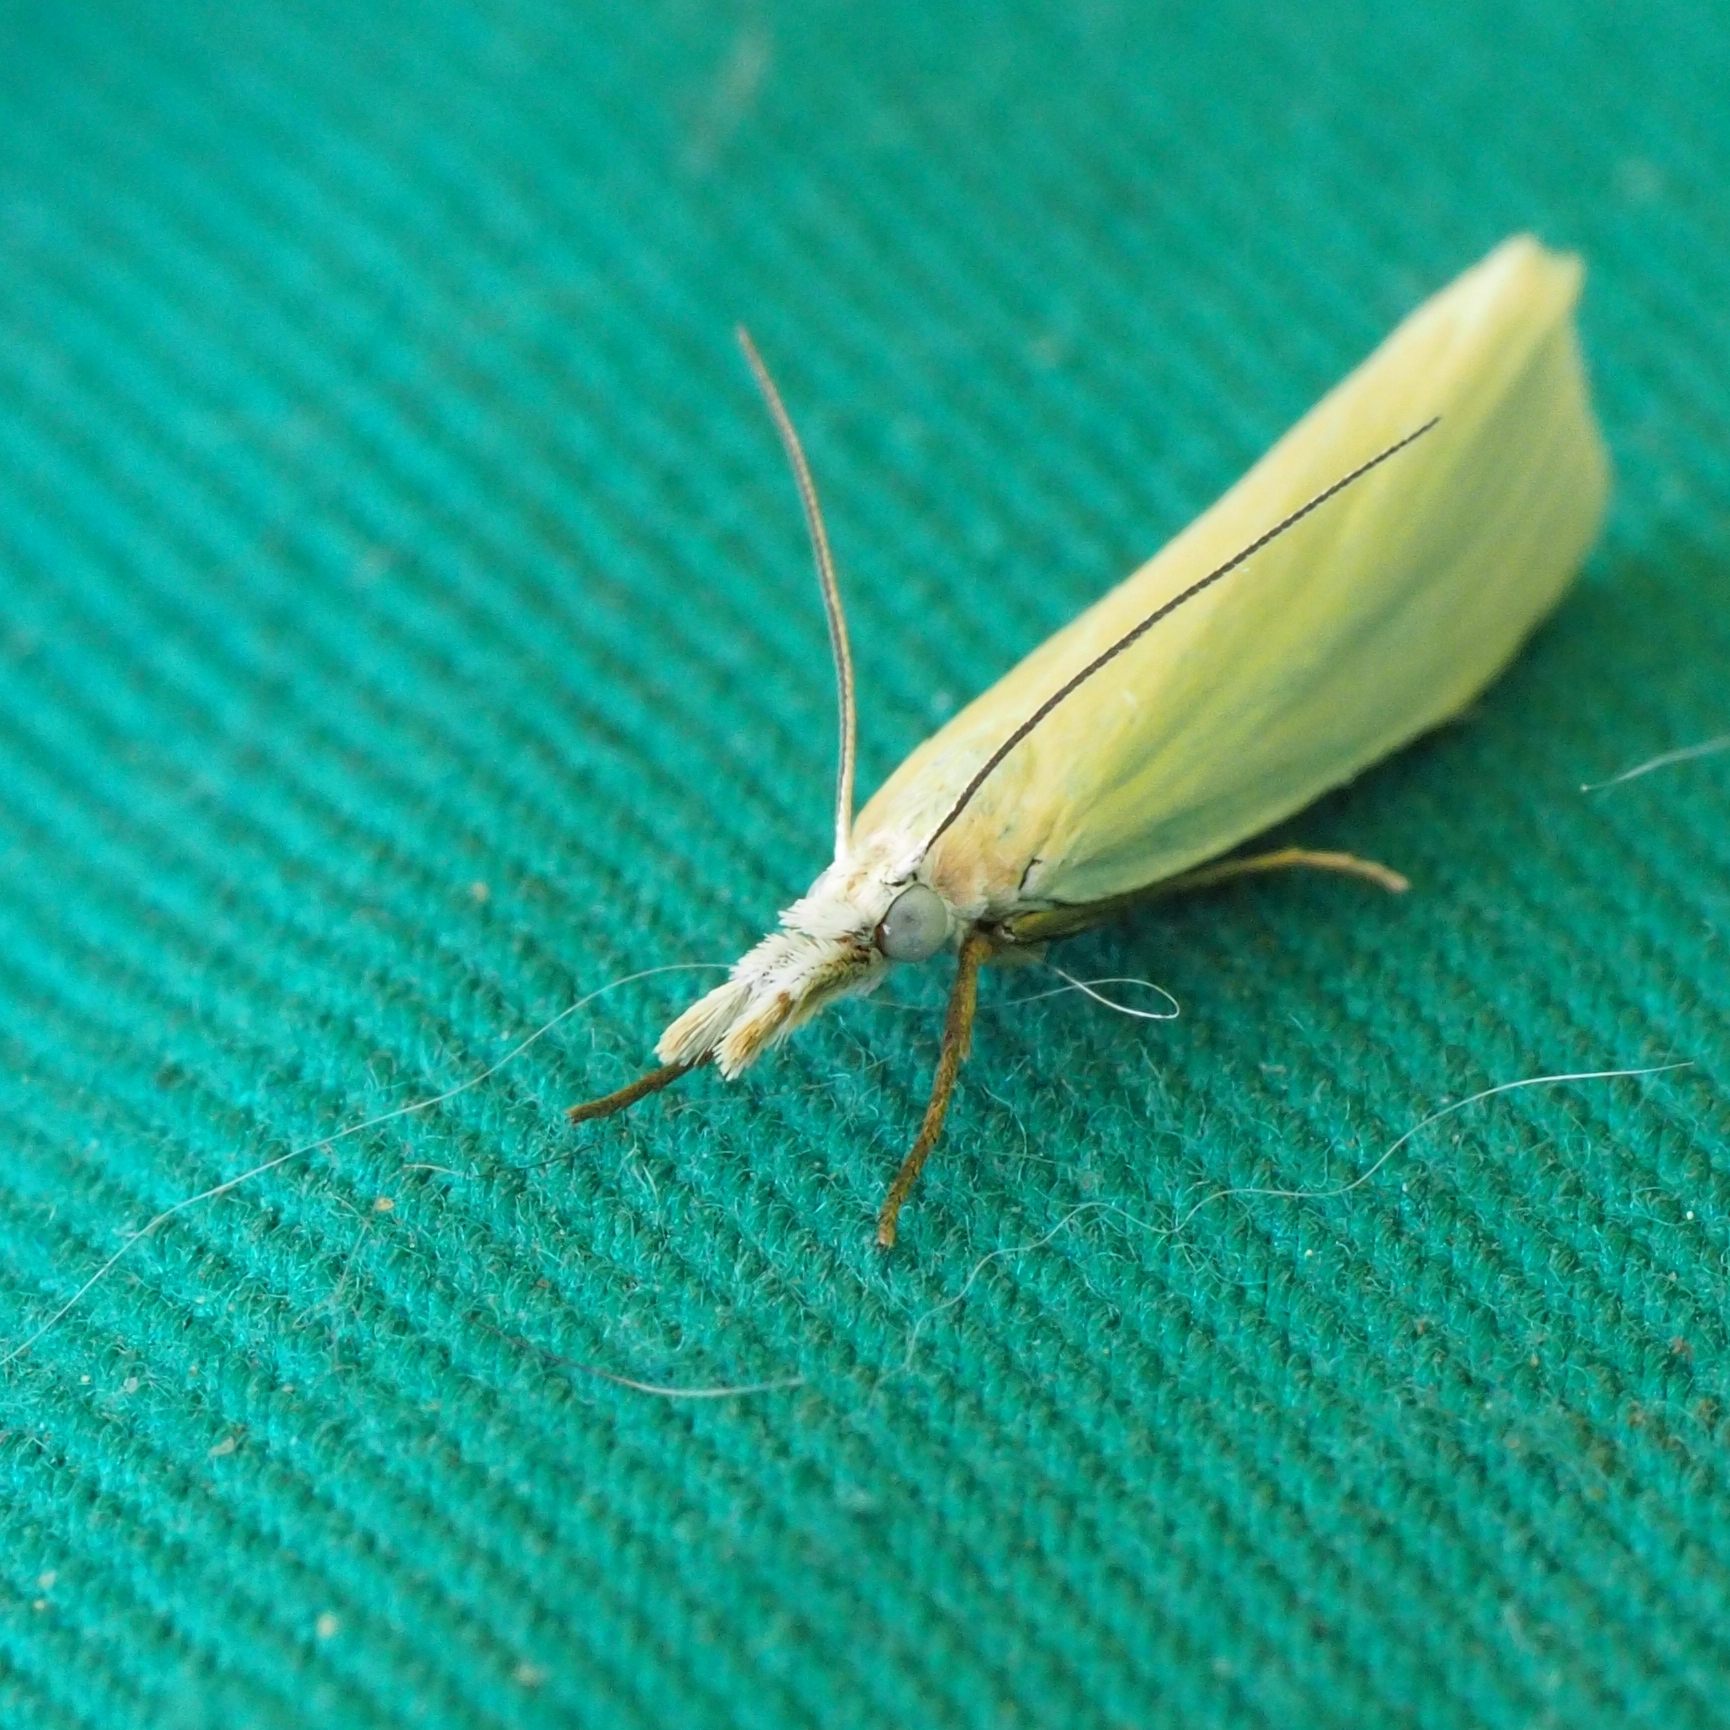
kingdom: Animalia
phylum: Arthropoda
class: Insecta
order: Lepidoptera
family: Crambidae
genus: Crambus
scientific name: Crambus perlellus
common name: Yellow satin veneer
